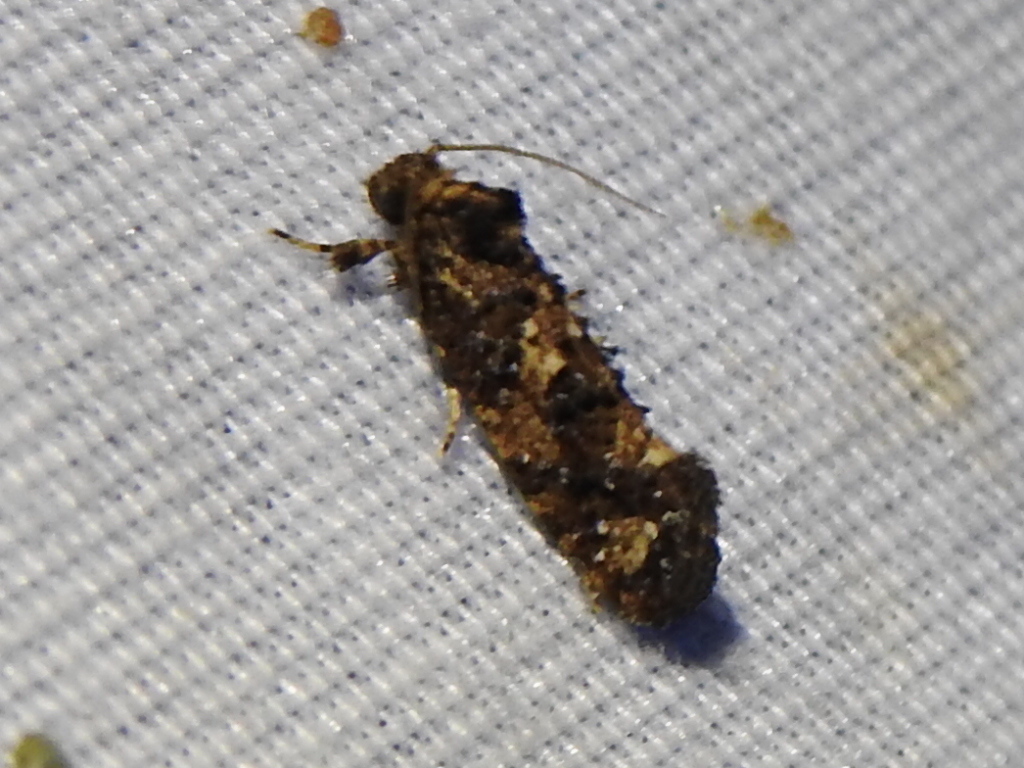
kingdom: Animalia
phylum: Arthropoda
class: Insecta
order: Lepidoptera
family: Tineidae
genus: Acrolophus
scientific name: Acrolophus cressoni
